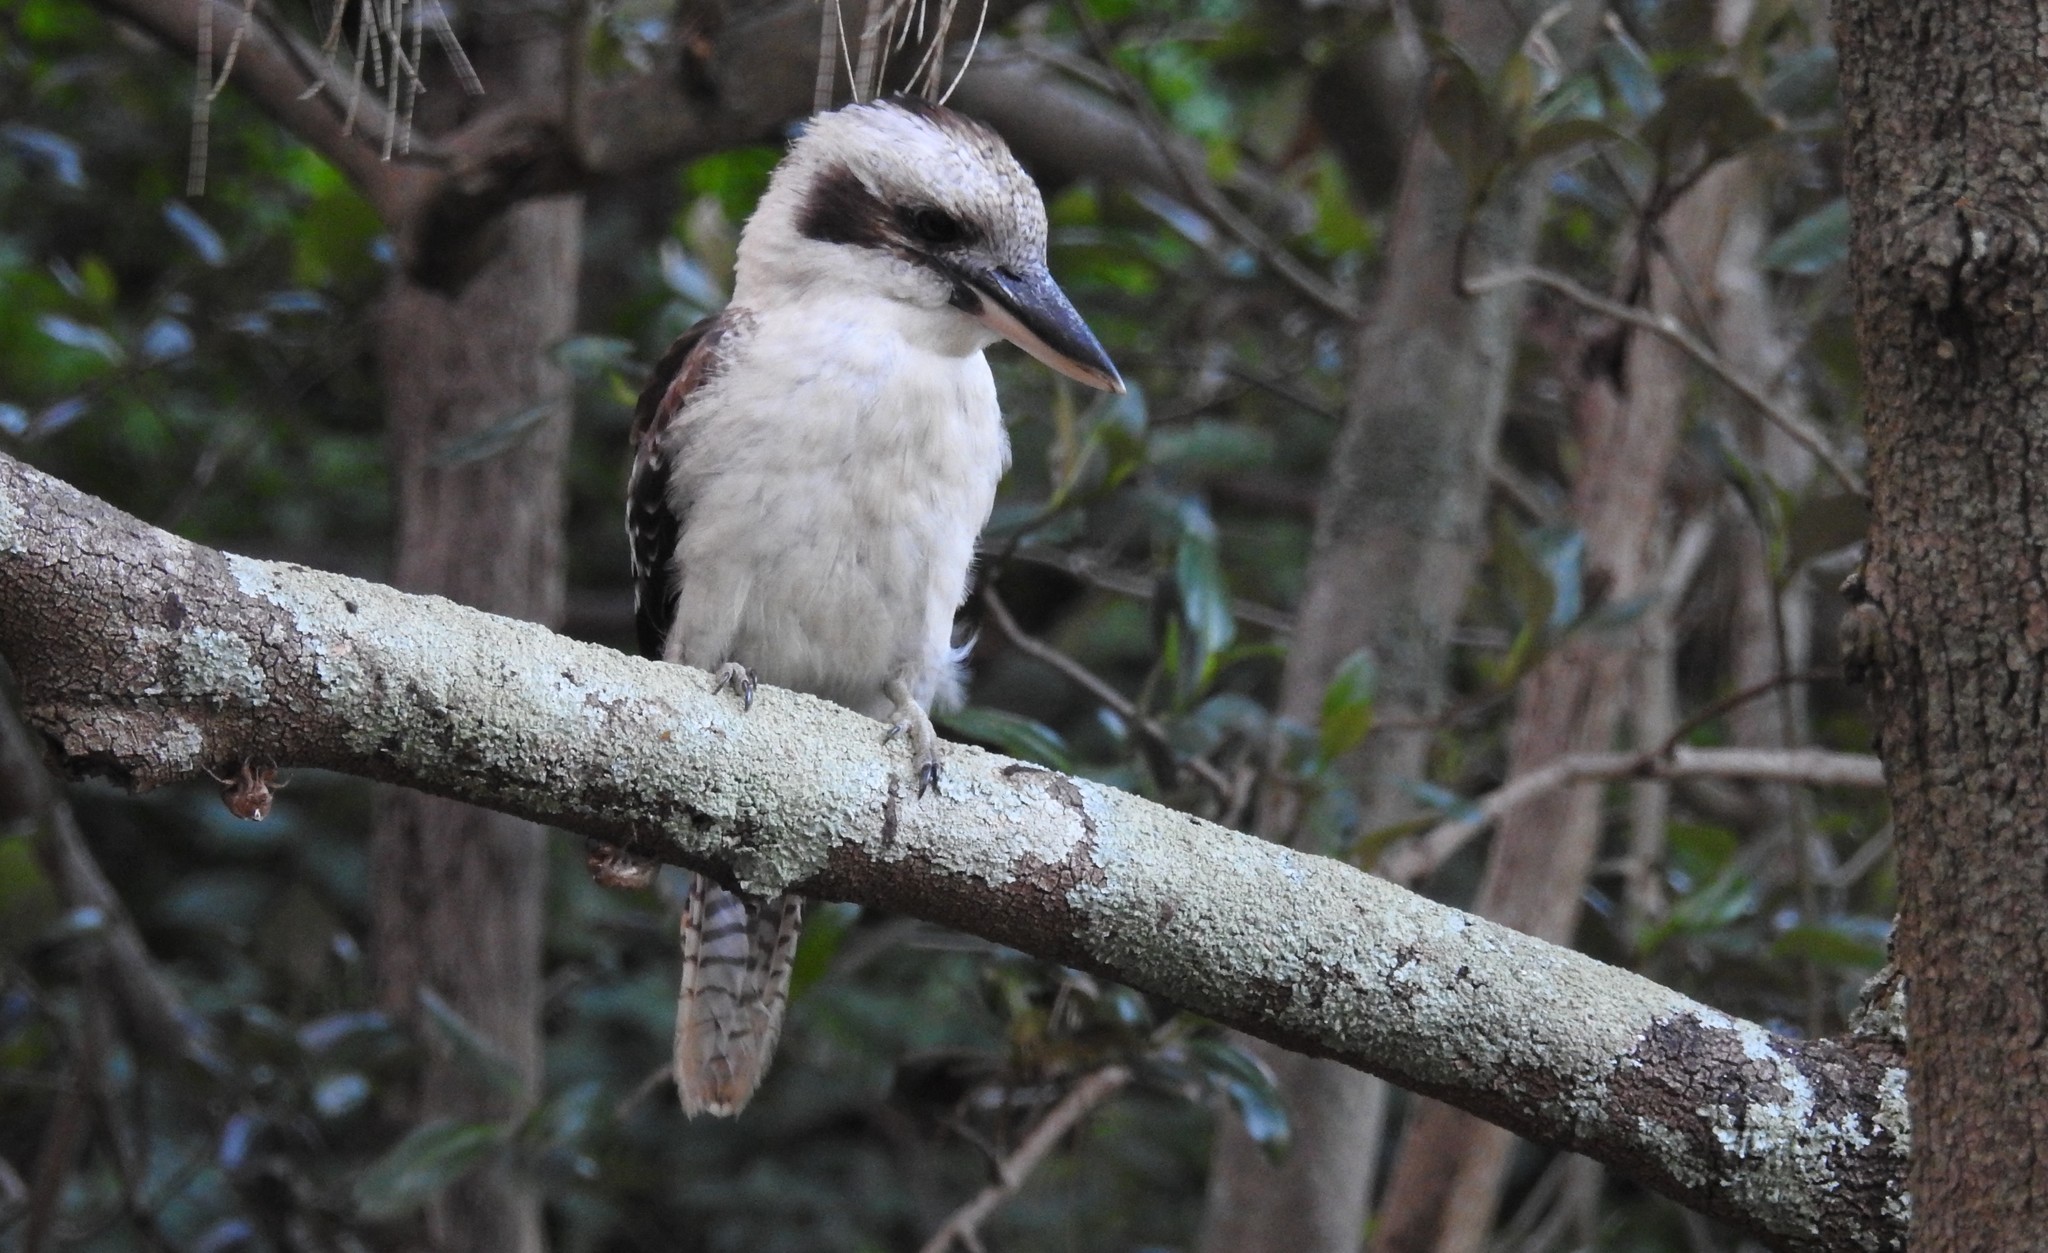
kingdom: Animalia
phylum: Chordata
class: Aves
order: Coraciiformes
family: Alcedinidae
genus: Dacelo
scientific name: Dacelo novaeguineae
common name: Laughing kookaburra
